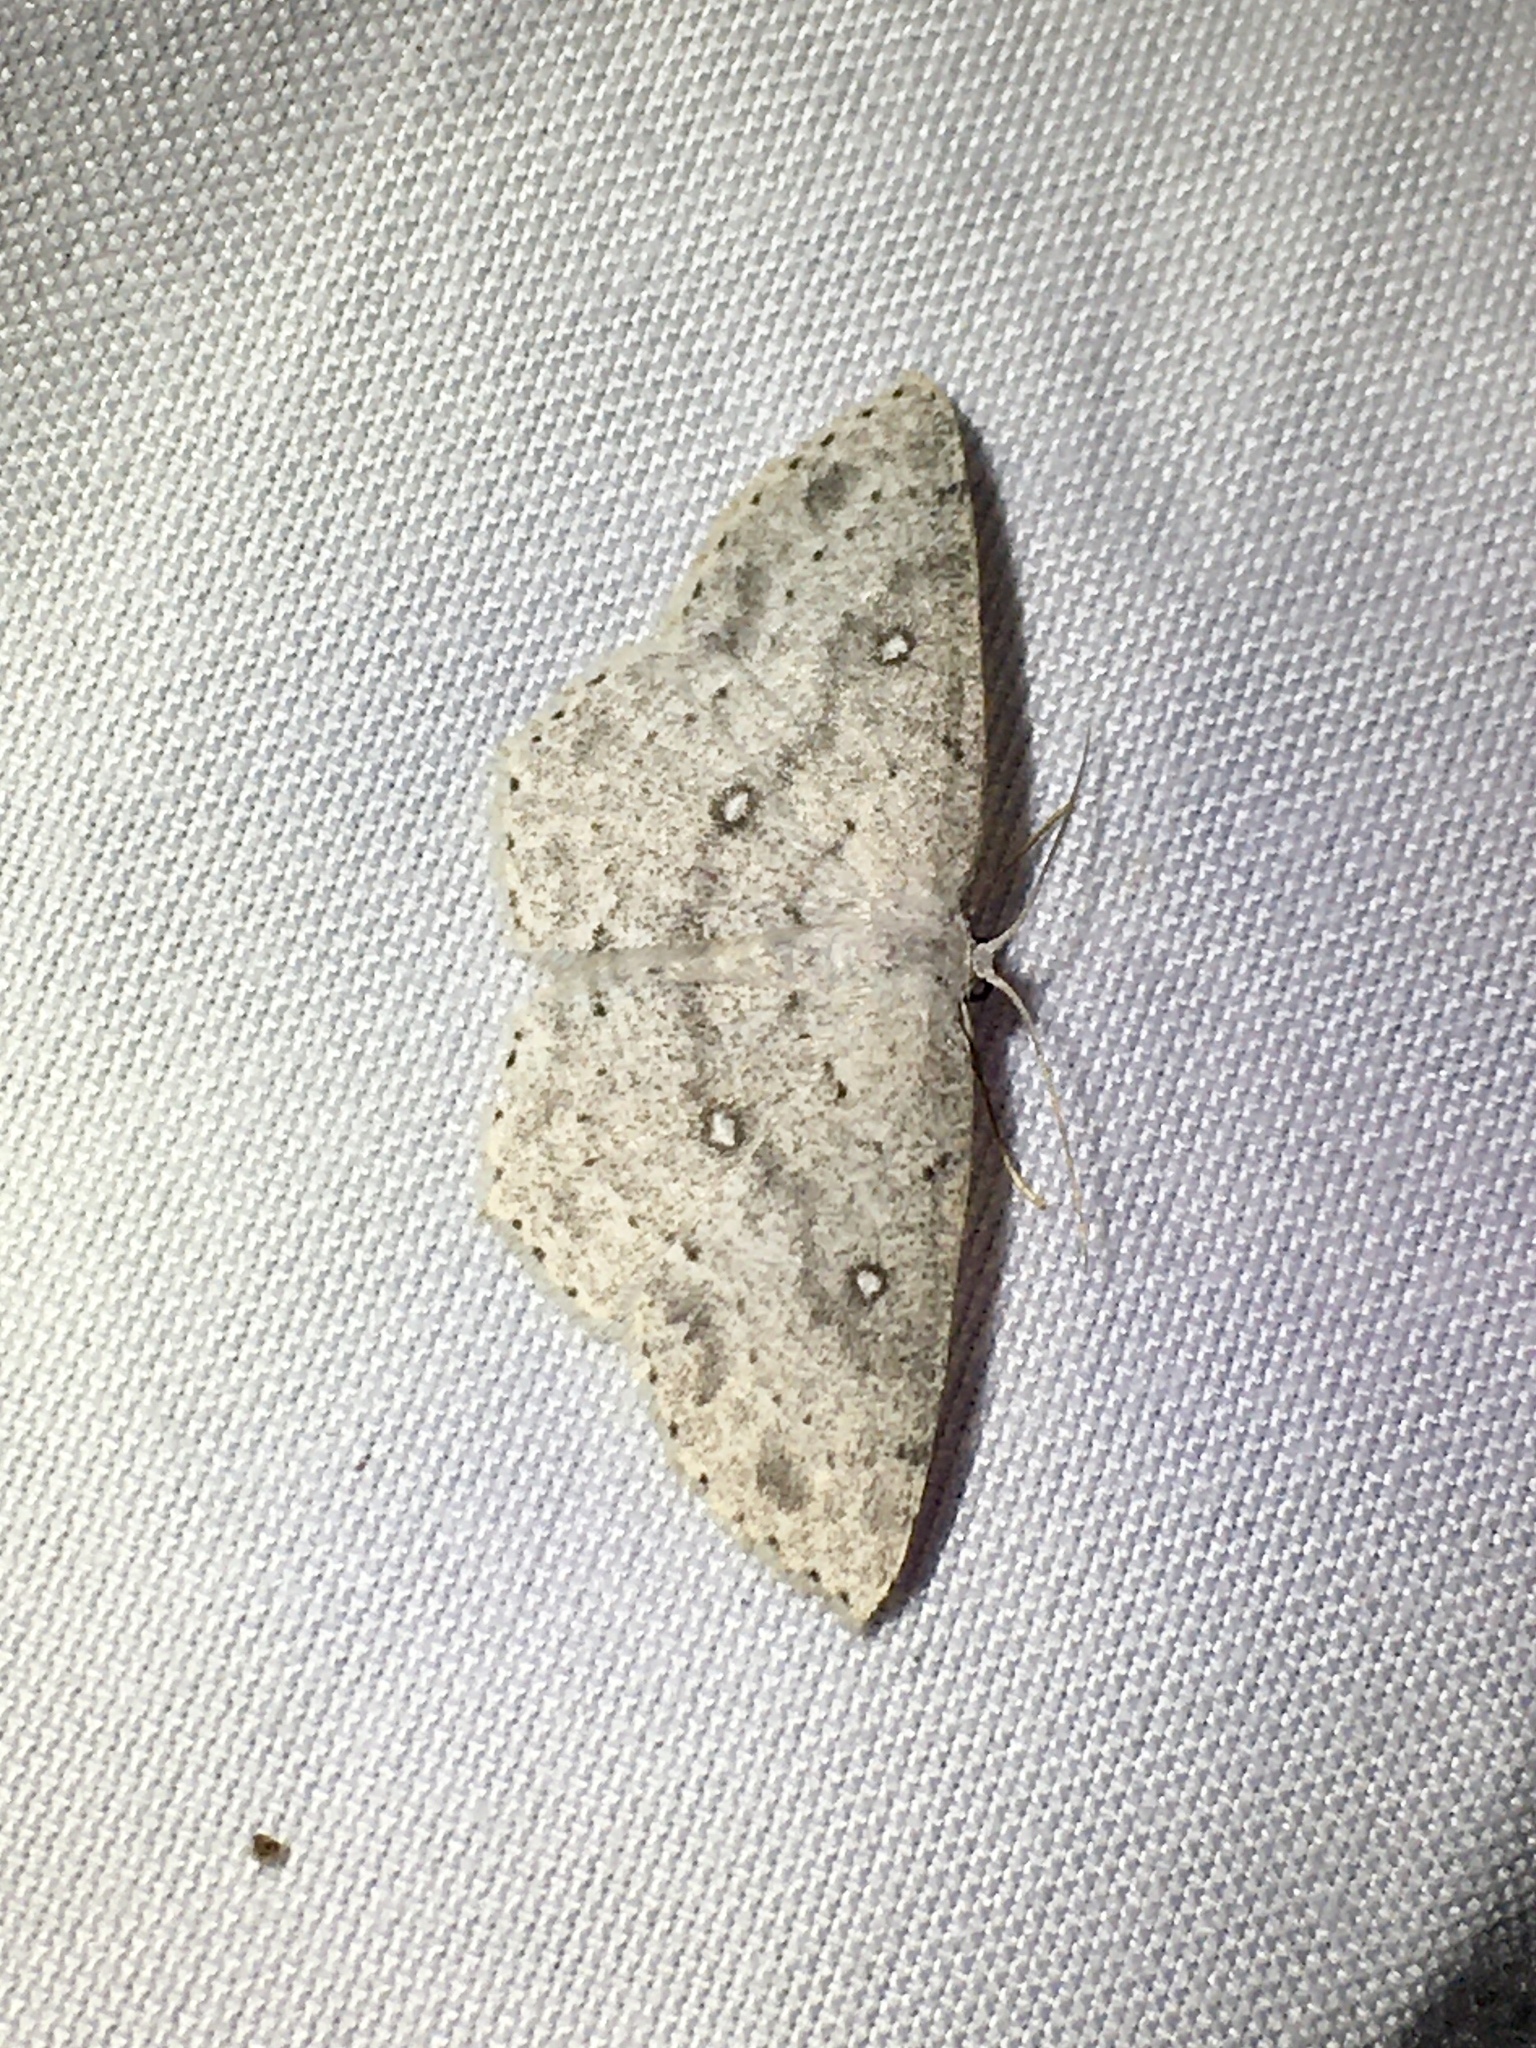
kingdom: Animalia
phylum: Arthropoda
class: Insecta
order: Lepidoptera
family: Geometridae
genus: Cyclophora
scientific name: Cyclophora pendulinaria
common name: Sweet fern geometer
